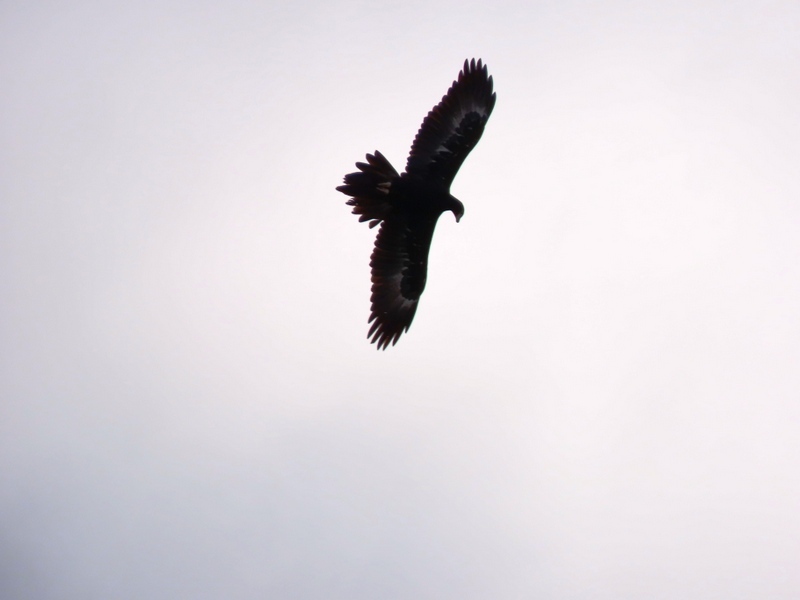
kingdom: Animalia
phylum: Chordata
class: Aves
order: Accipitriformes
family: Accipitridae
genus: Aquila
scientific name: Aquila audax
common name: Wedge-tailed eagle
